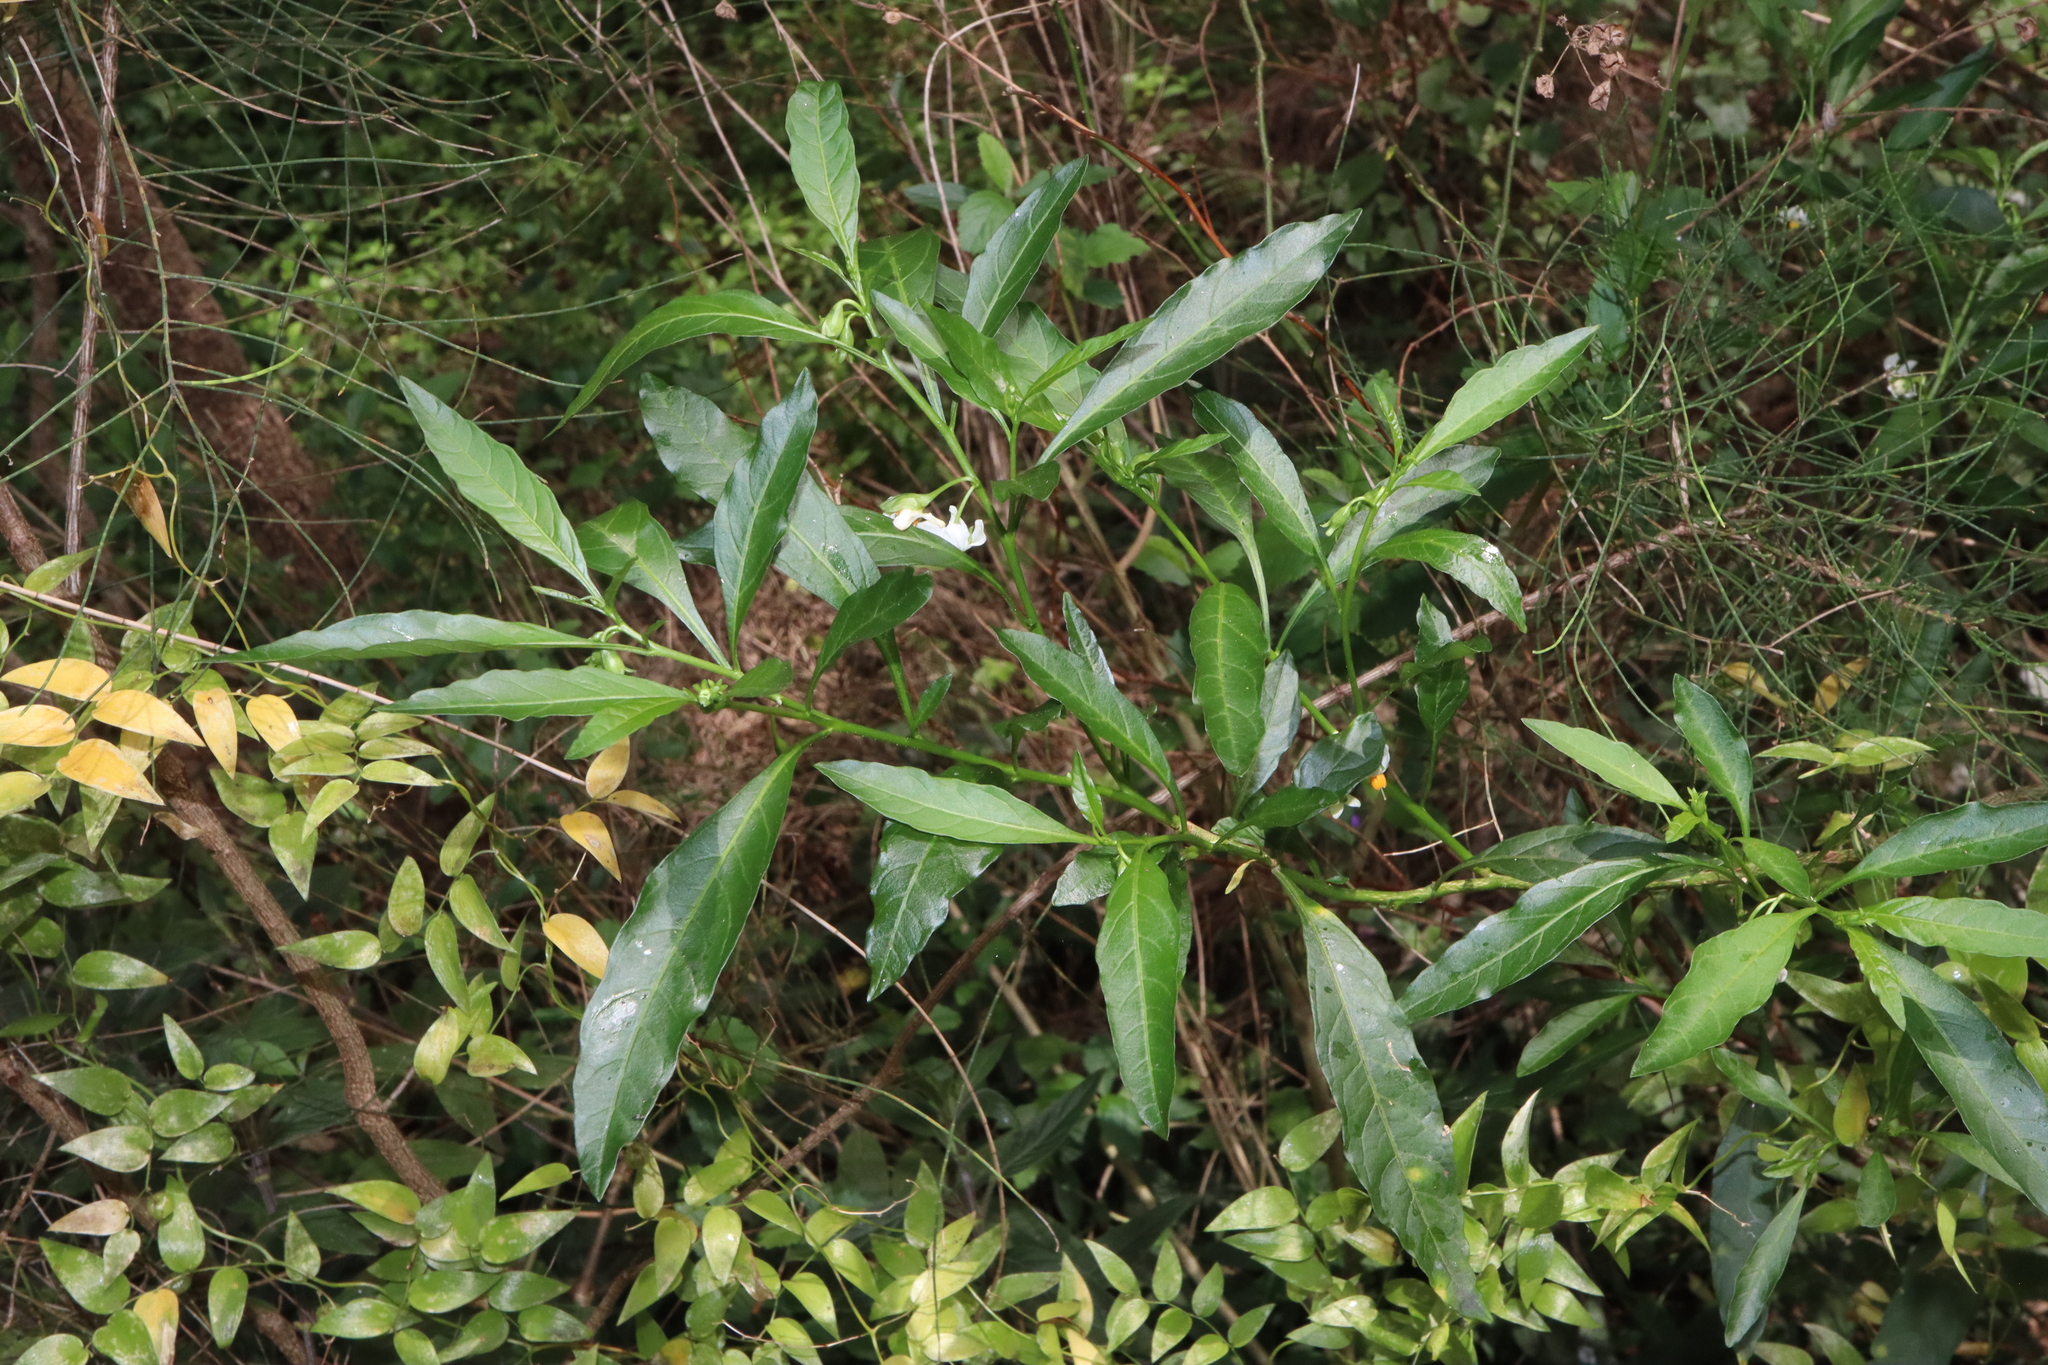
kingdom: Plantae
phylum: Tracheophyta
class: Magnoliopsida
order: Solanales
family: Solanaceae
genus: Solanum
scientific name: Solanum pseudocapsicum
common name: Jerusalem cherry
